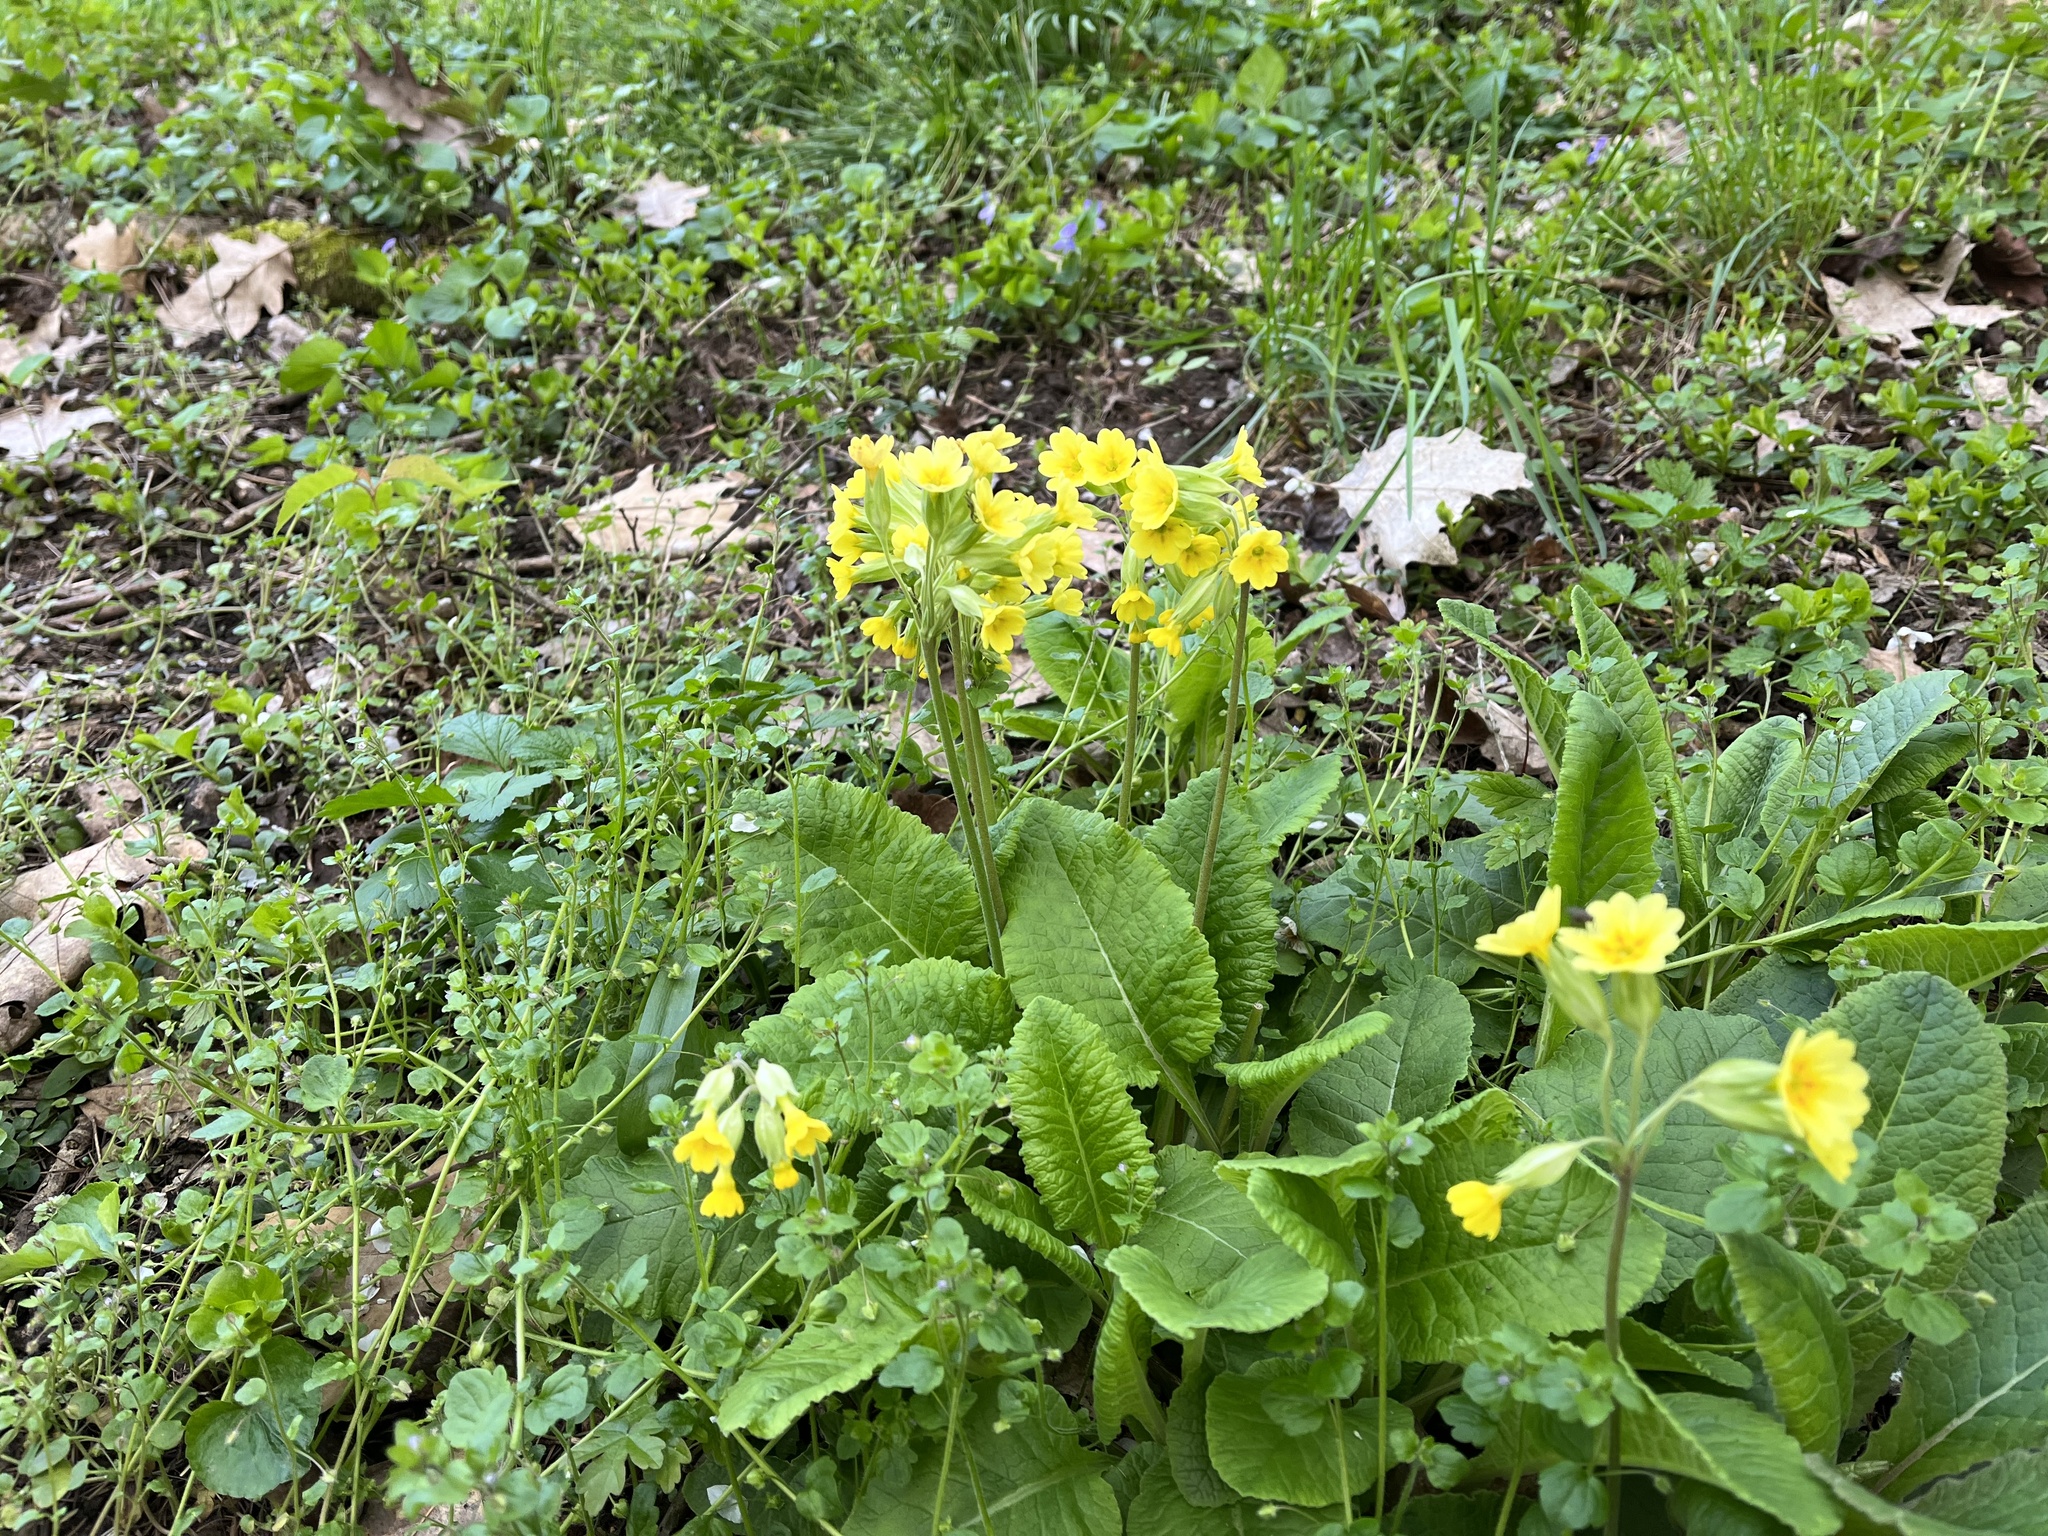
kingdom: Plantae
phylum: Tracheophyta
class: Magnoliopsida
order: Ericales
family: Primulaceae
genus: Primula
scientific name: Primula veris
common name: Cowslip
